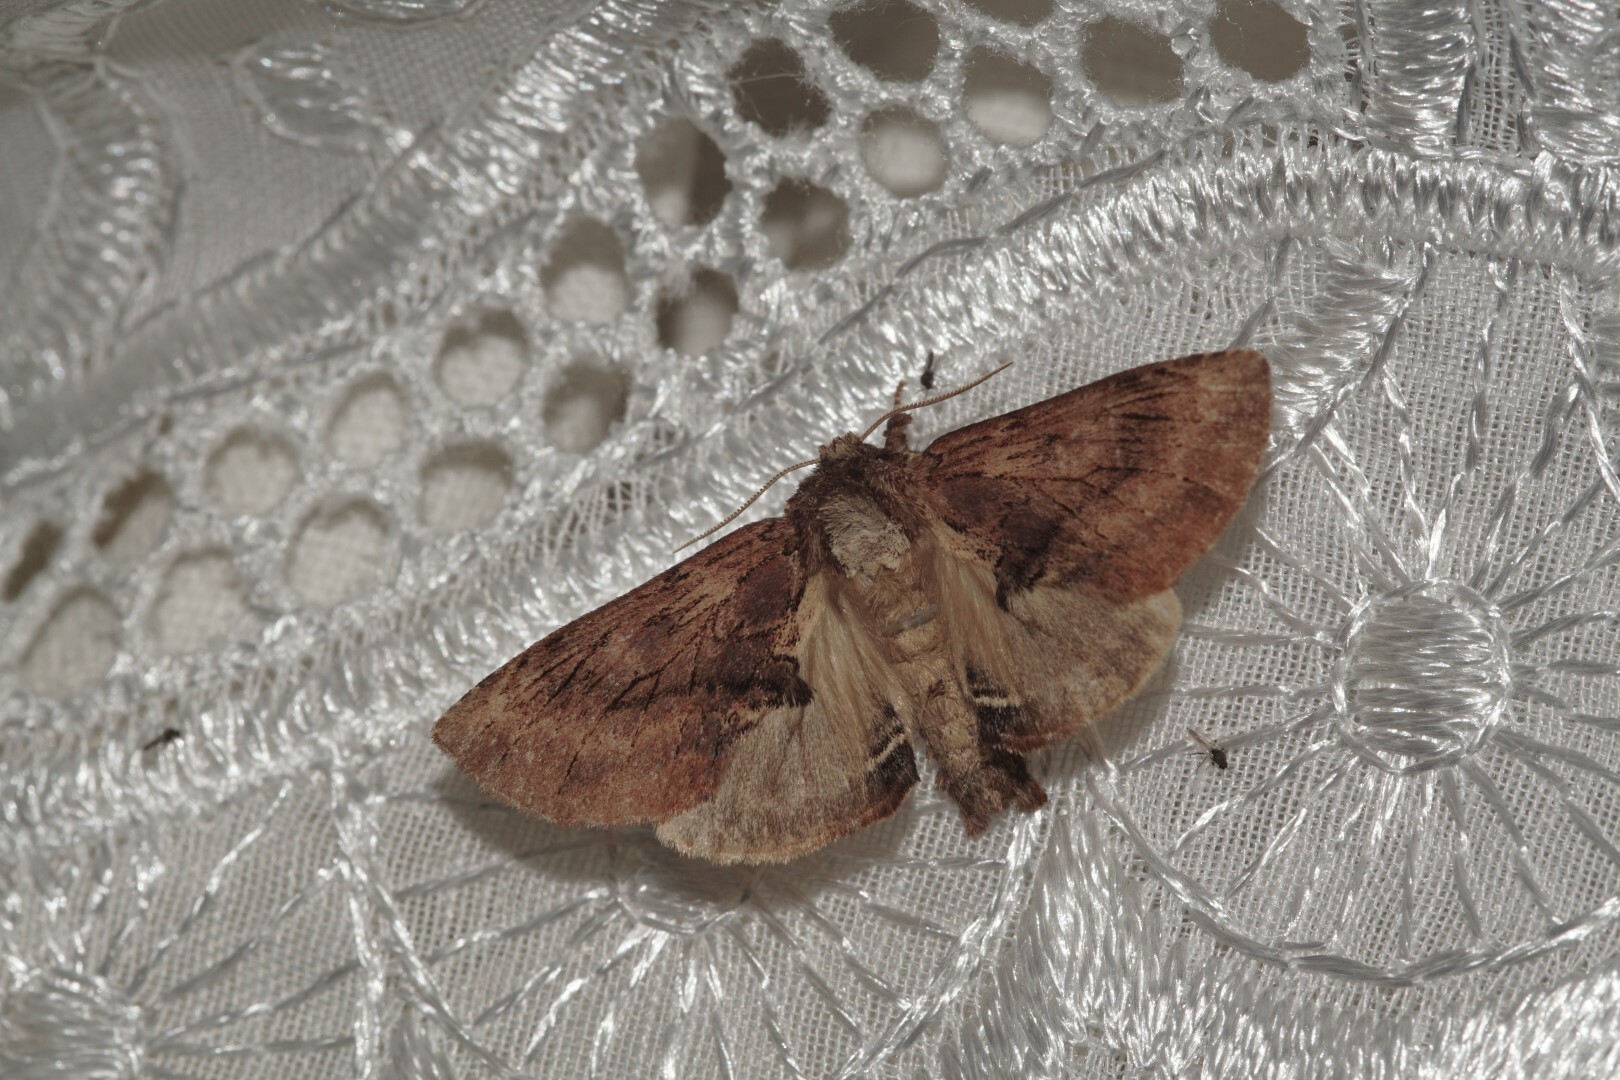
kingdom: Animalia
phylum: Arthropoda
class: Insecta
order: Lepidoptera
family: Notodontidae
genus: Ptilodon
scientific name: Ptilodon capucina
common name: Coxcomb prominent
